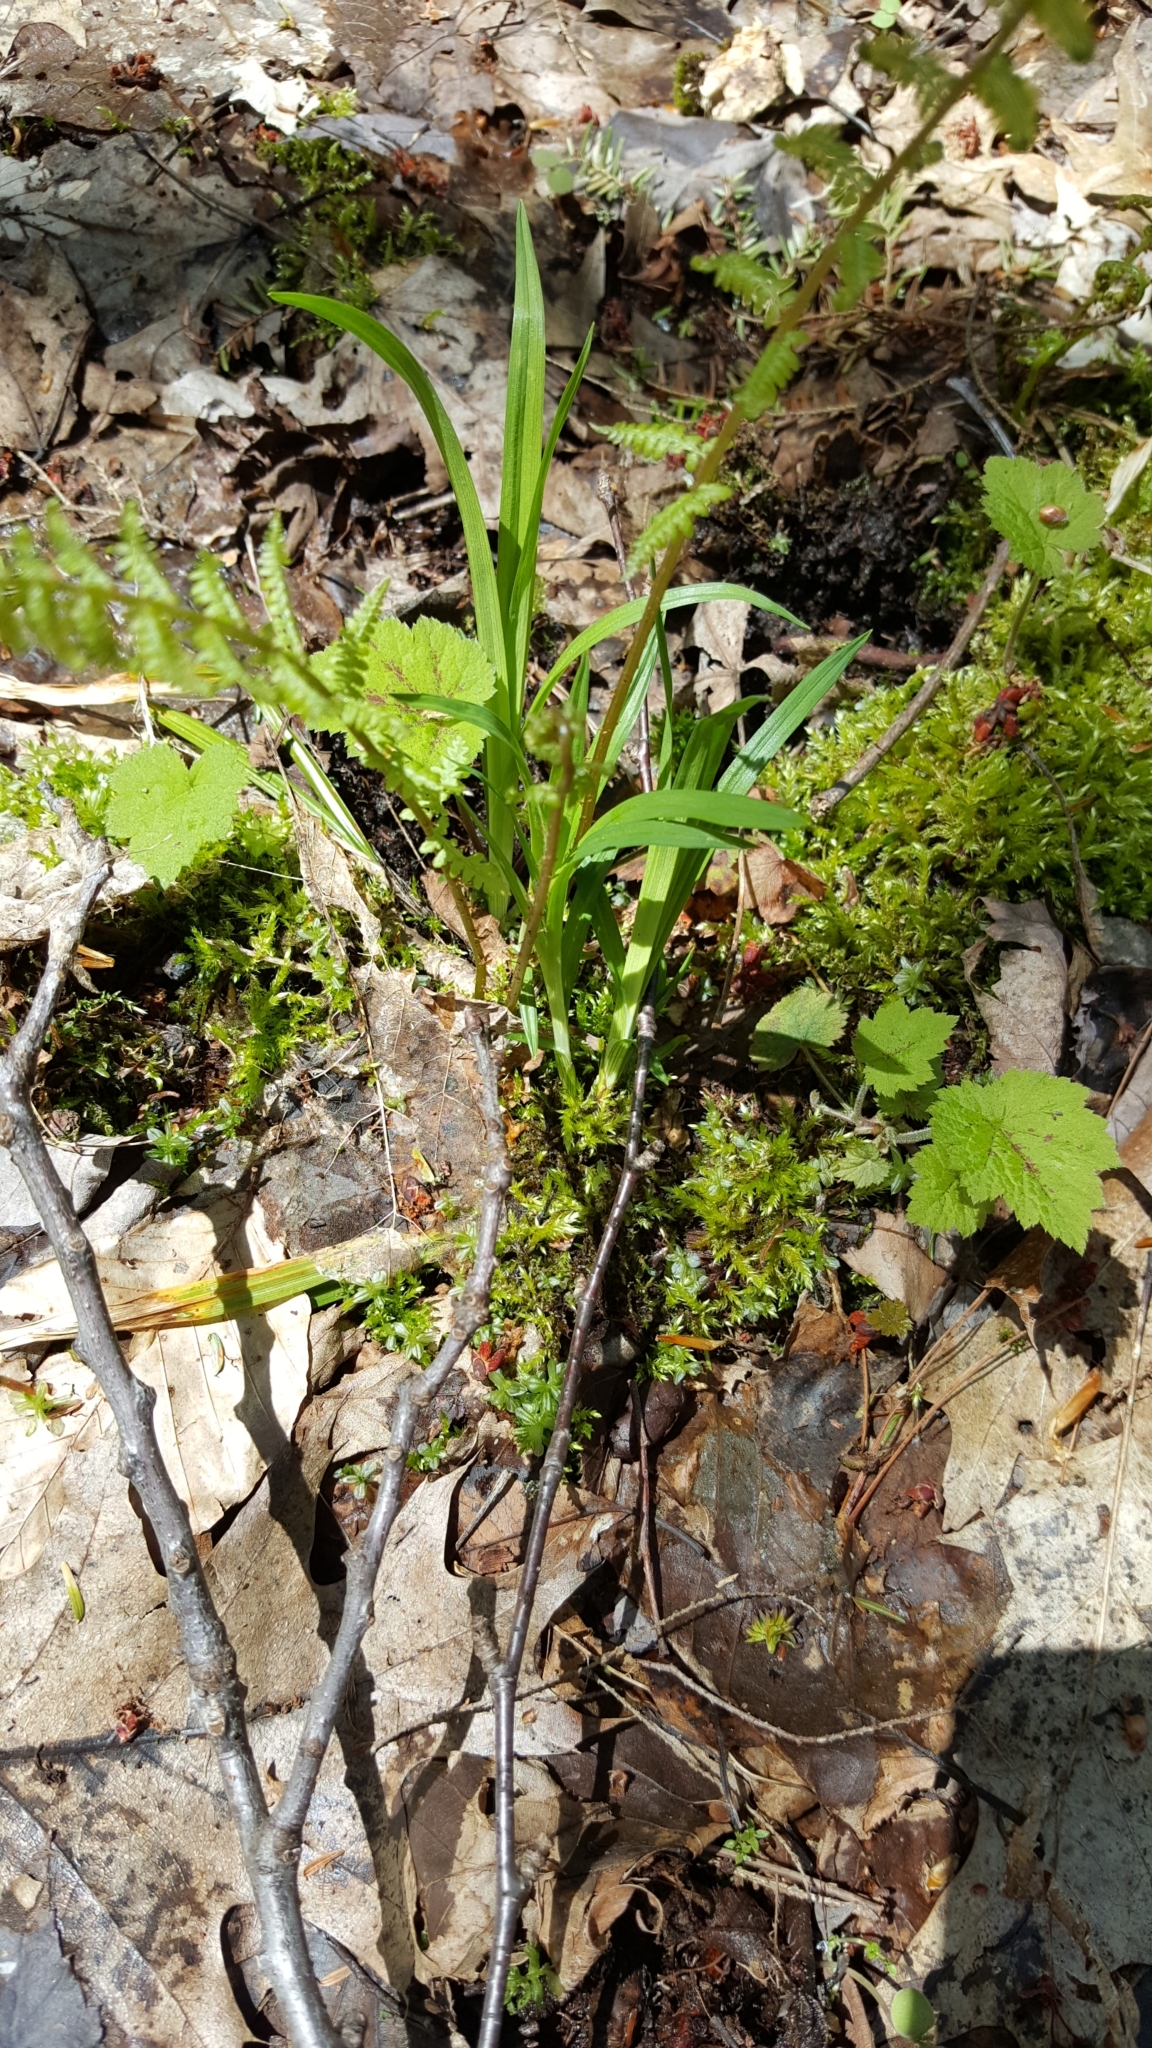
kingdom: Plantae
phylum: Tracheophyta
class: Magnoliopsida
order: Saxifragales
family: Saxifragaceae
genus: Tiarella
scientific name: Tiarella stolonifera
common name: Stoloniferous foamflower
